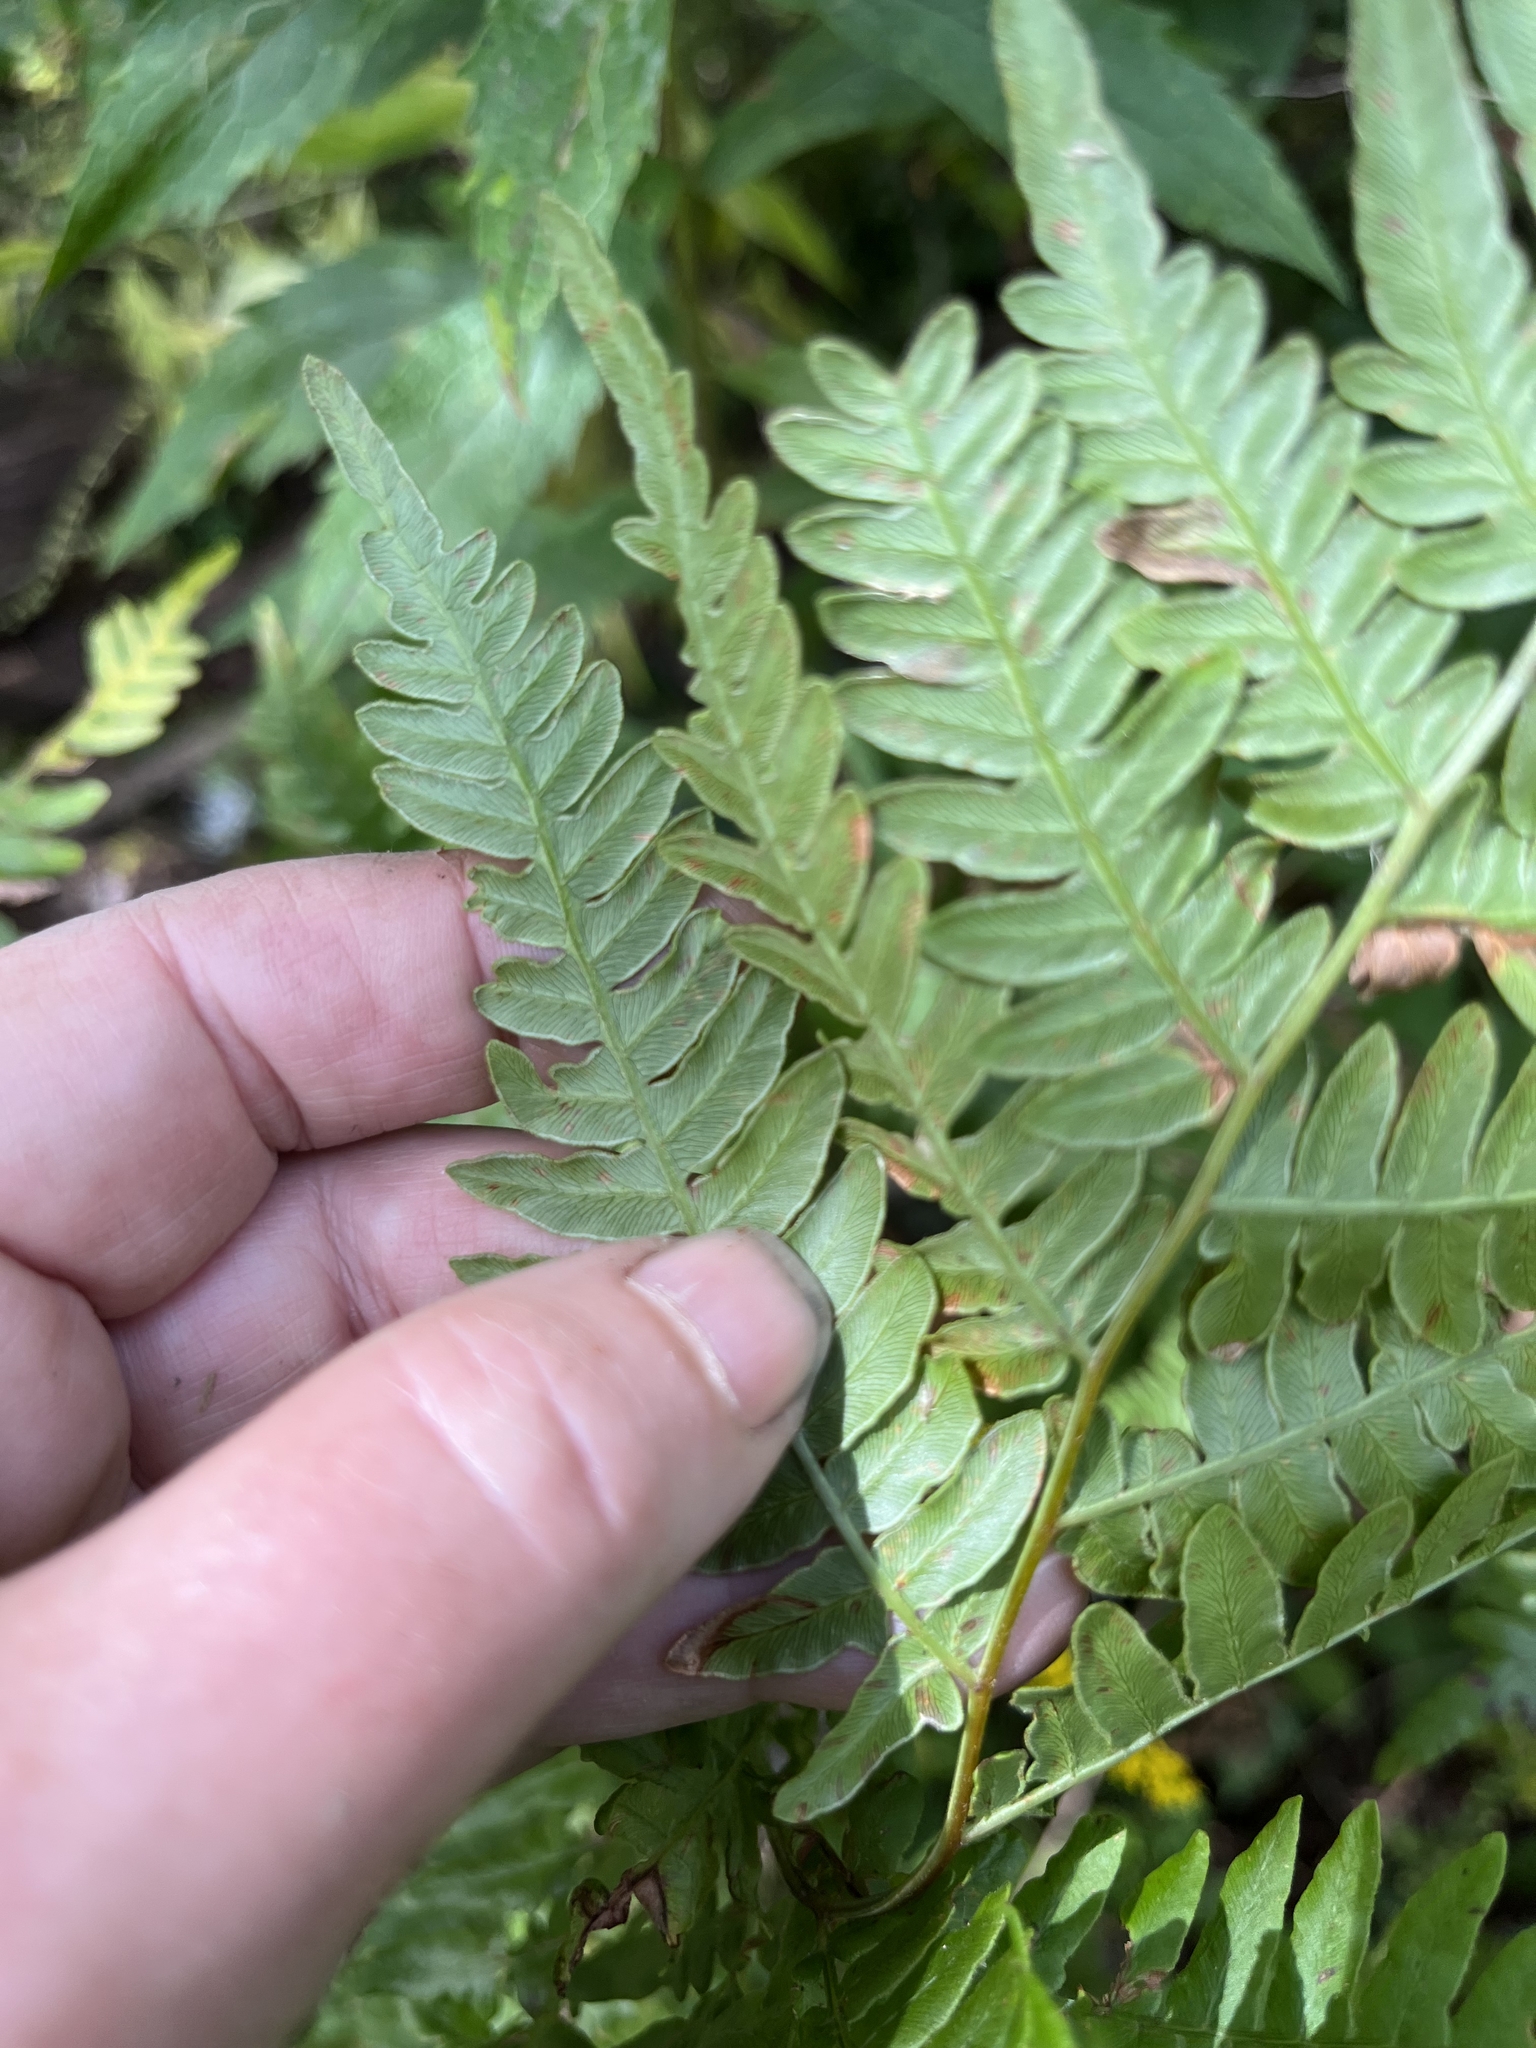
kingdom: Plantae
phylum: Tracheophyta
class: Polypodiopsida
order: Polypodiales
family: Dennstaedtiaceae
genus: Pteridium
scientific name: Pteridium aquilinum
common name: Bracken
